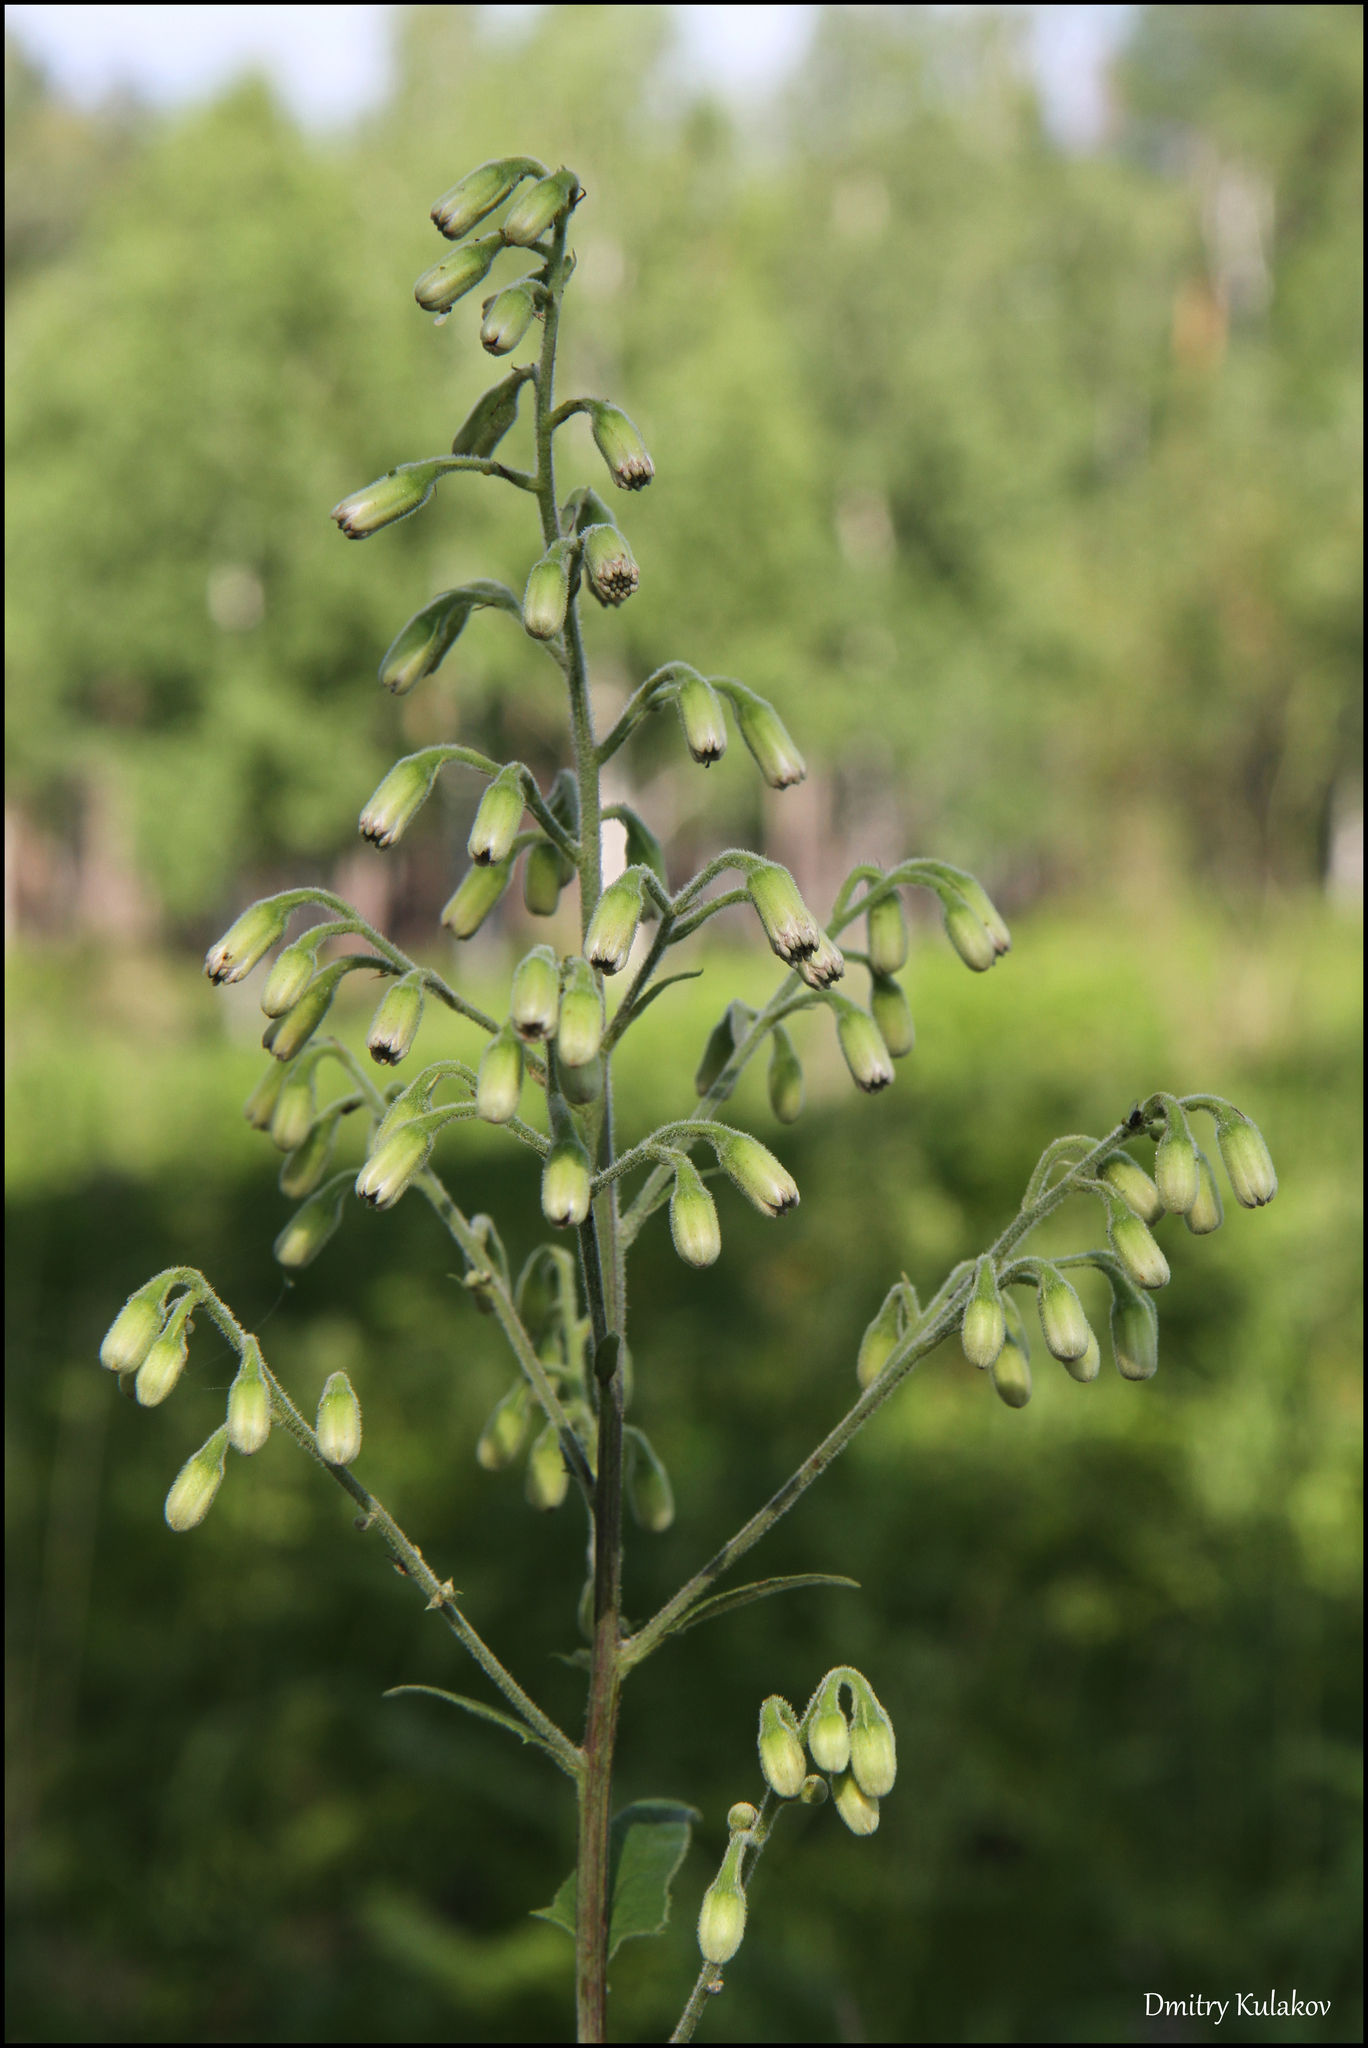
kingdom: Plantae
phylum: Tracheophyta
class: Magnoliopsida
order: Asterales
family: Asteraceae
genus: Parasenecio
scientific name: Parasenecio hastatus
